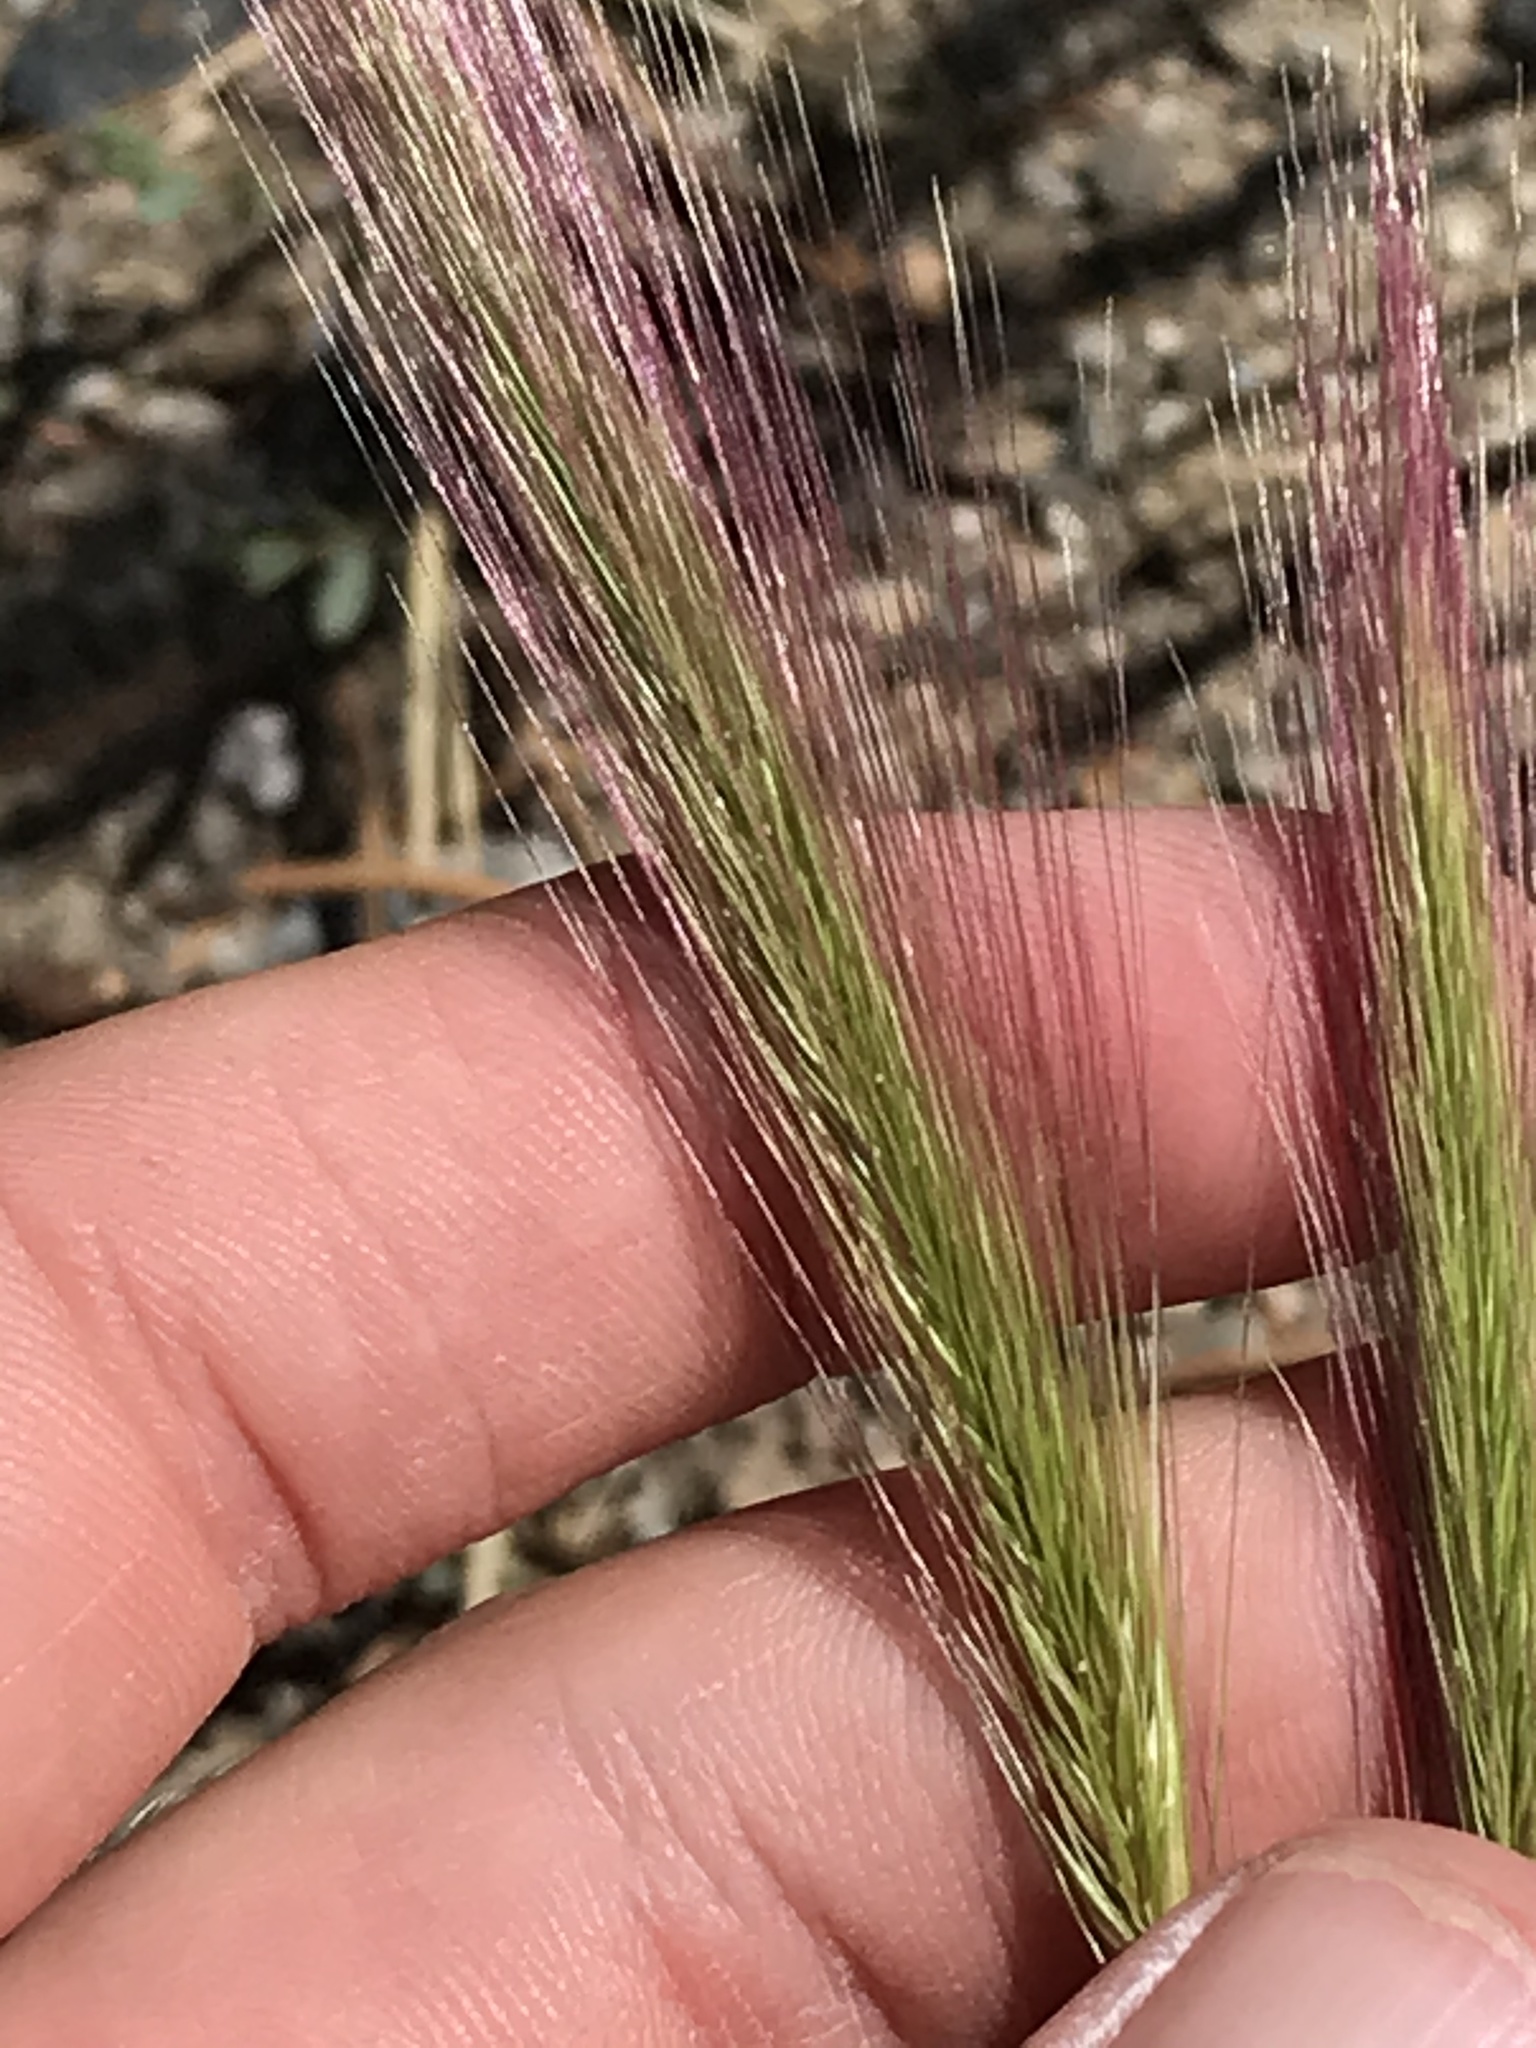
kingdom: Plantae
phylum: Tracheophyta
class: Liliopsida
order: Poales
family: Poaceae
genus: Hordeum
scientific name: Hordeum jubatum
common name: Foxtail barley
